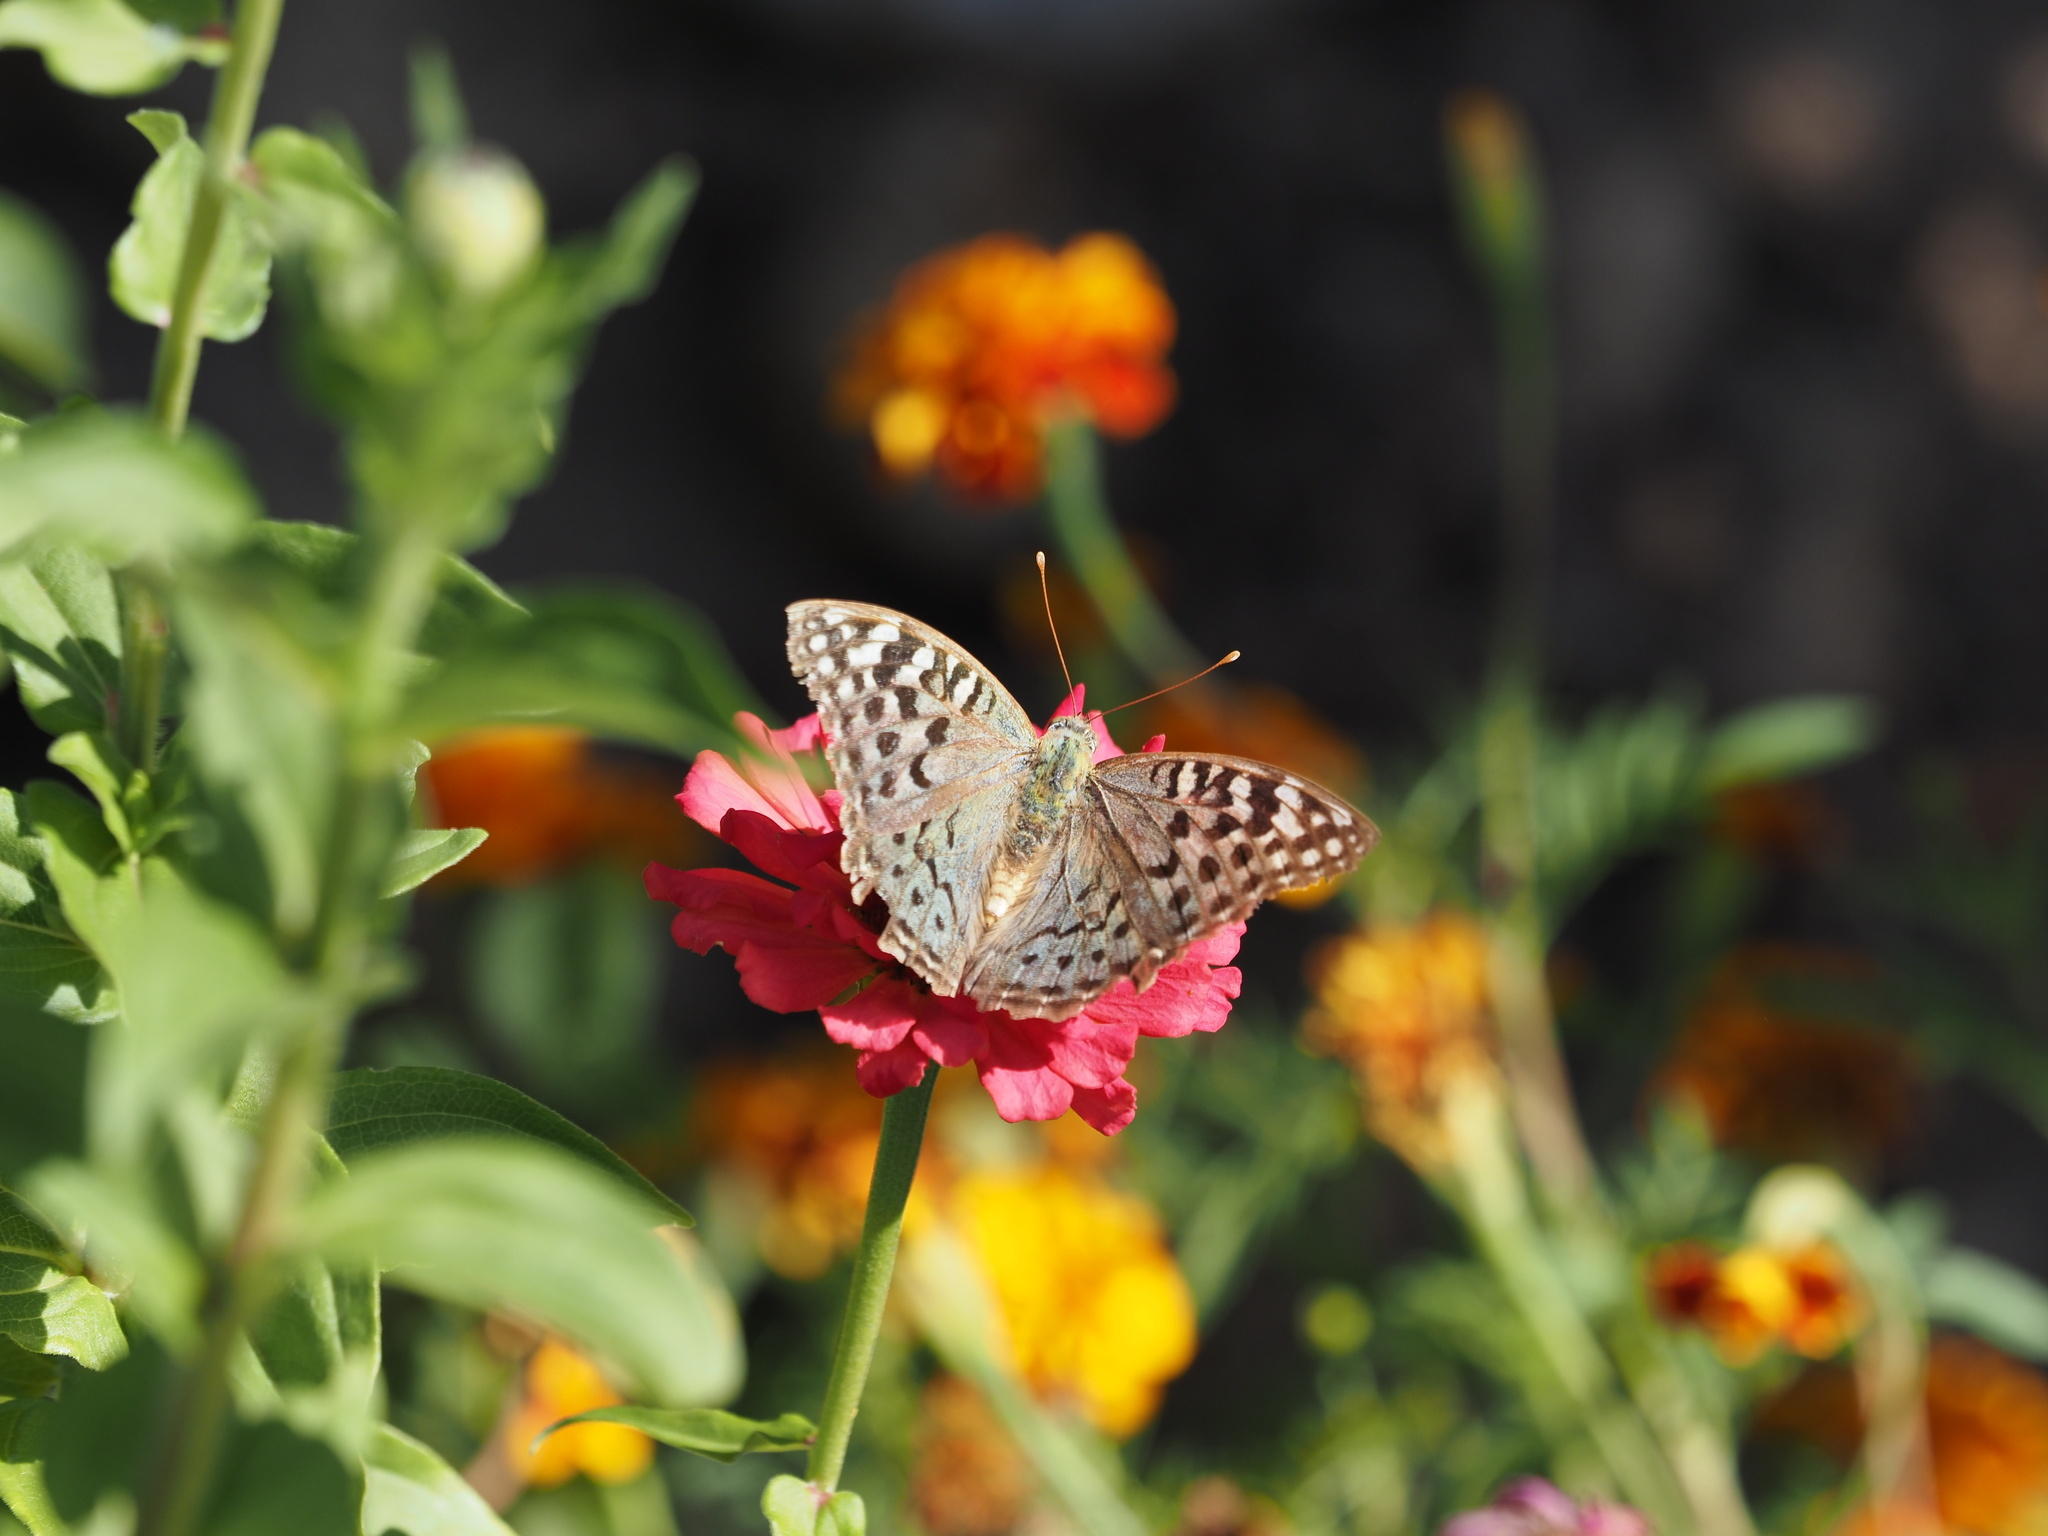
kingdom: Animalia
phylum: Arthropoda
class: Insecta
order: Lepidoptera
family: Nymphalidae
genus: Damora
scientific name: Damora pandora
